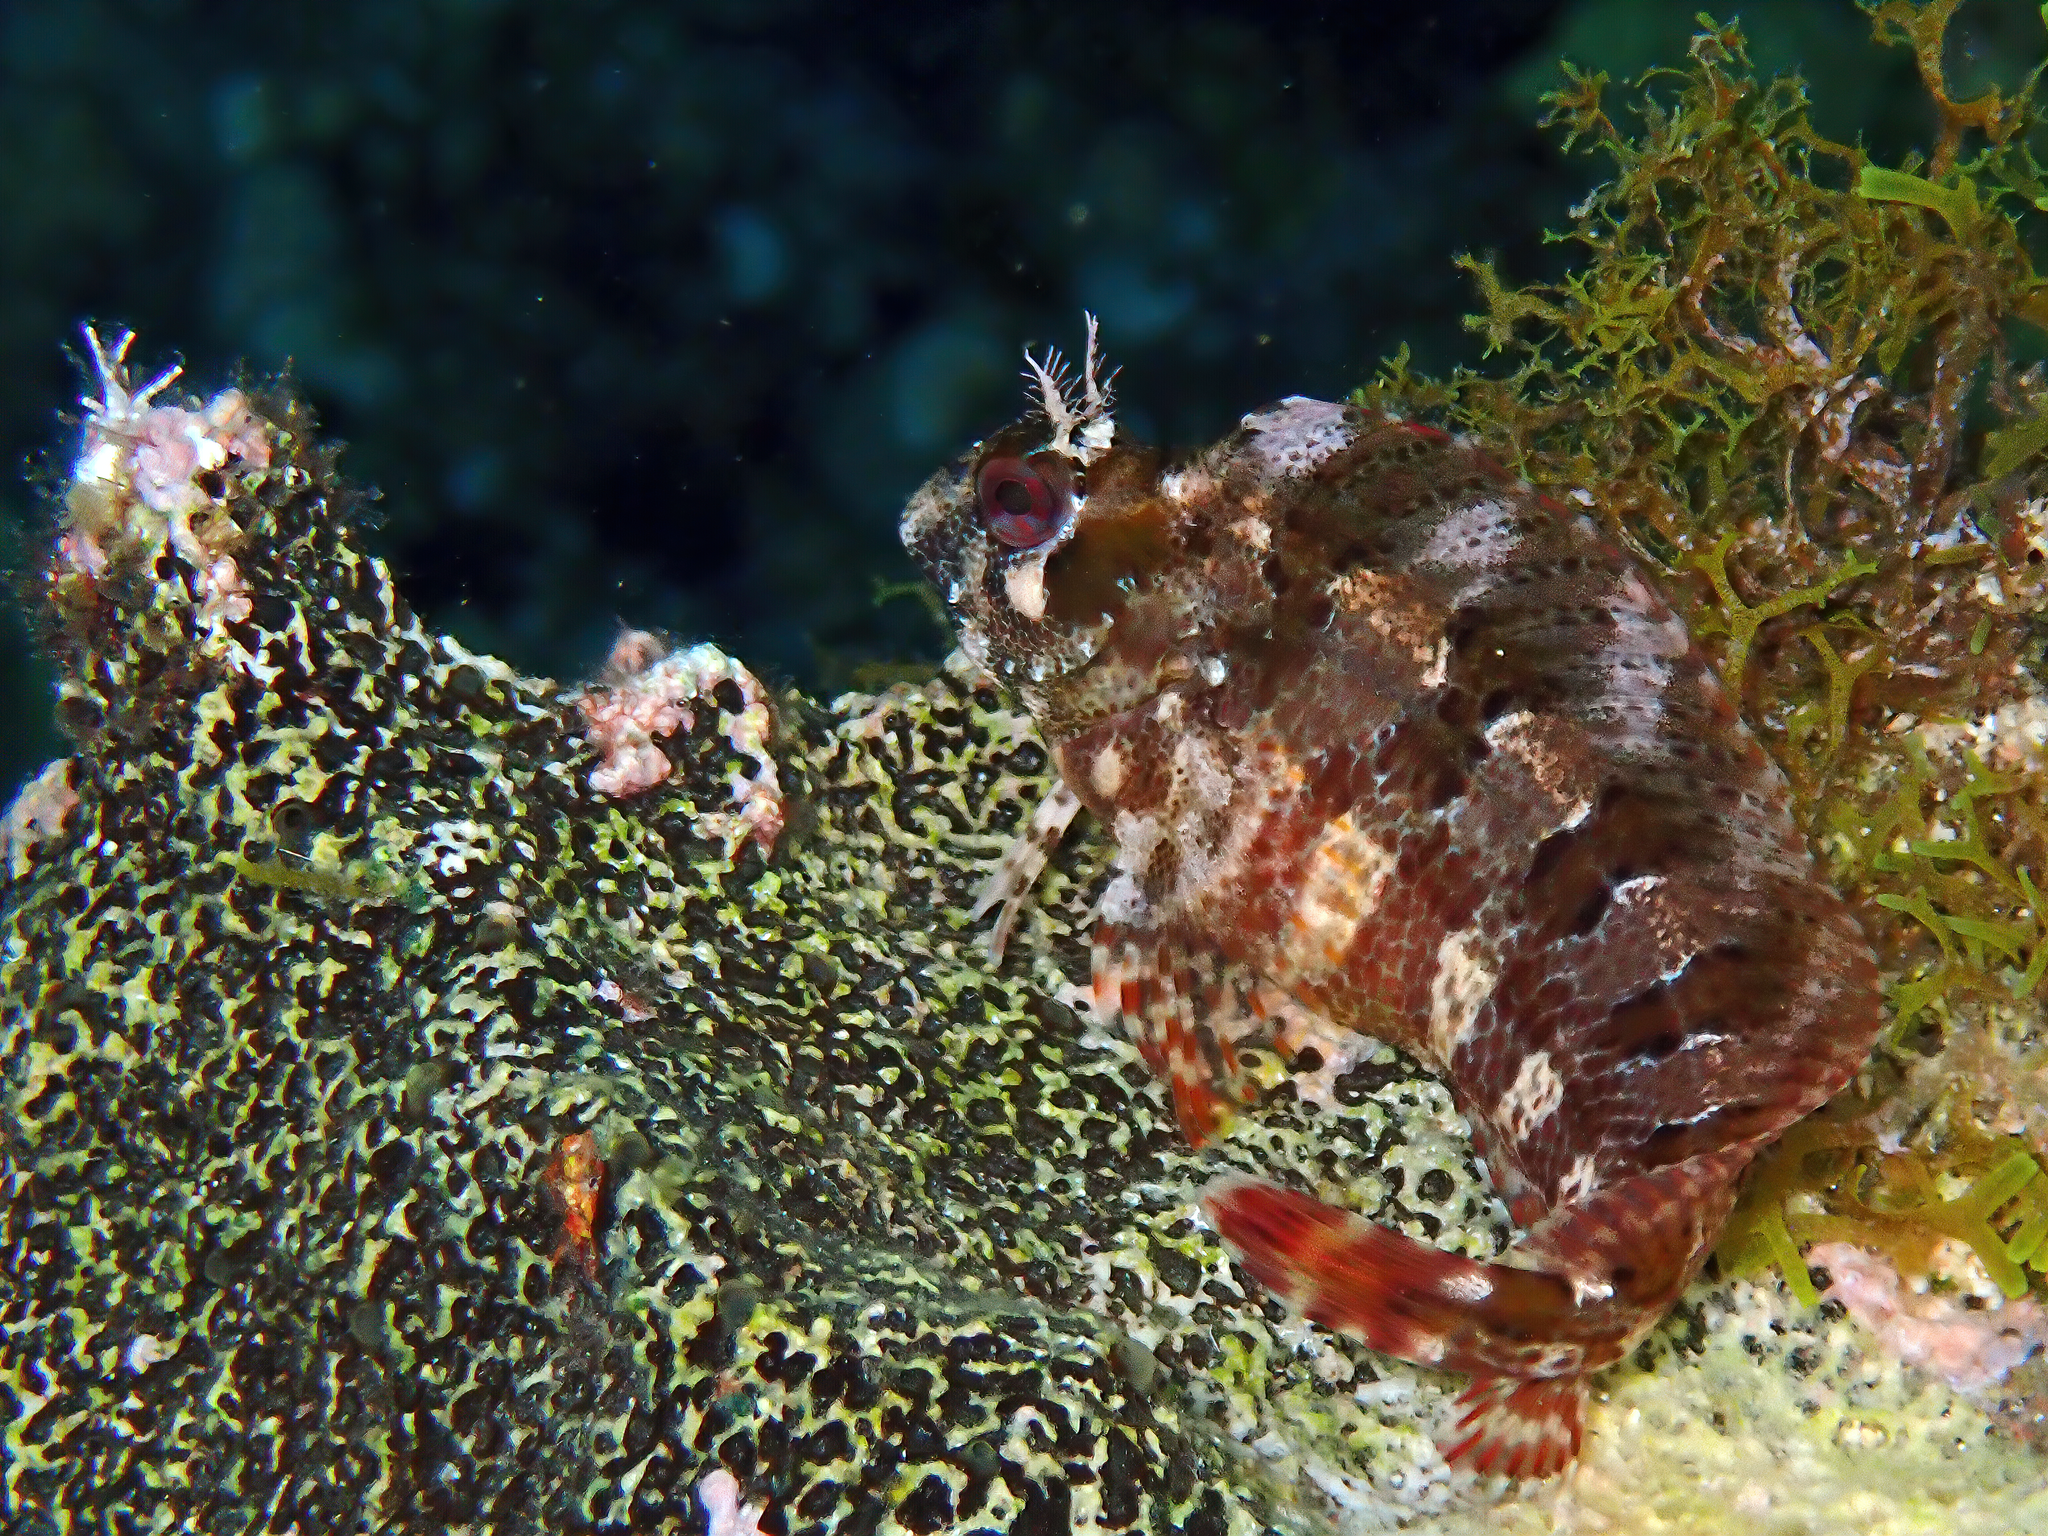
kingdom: Animalia
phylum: Chordata
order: Perciformes
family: Blenniidae
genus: Parablennius
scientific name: Parablennius gattorugine
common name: Tompot blenny
